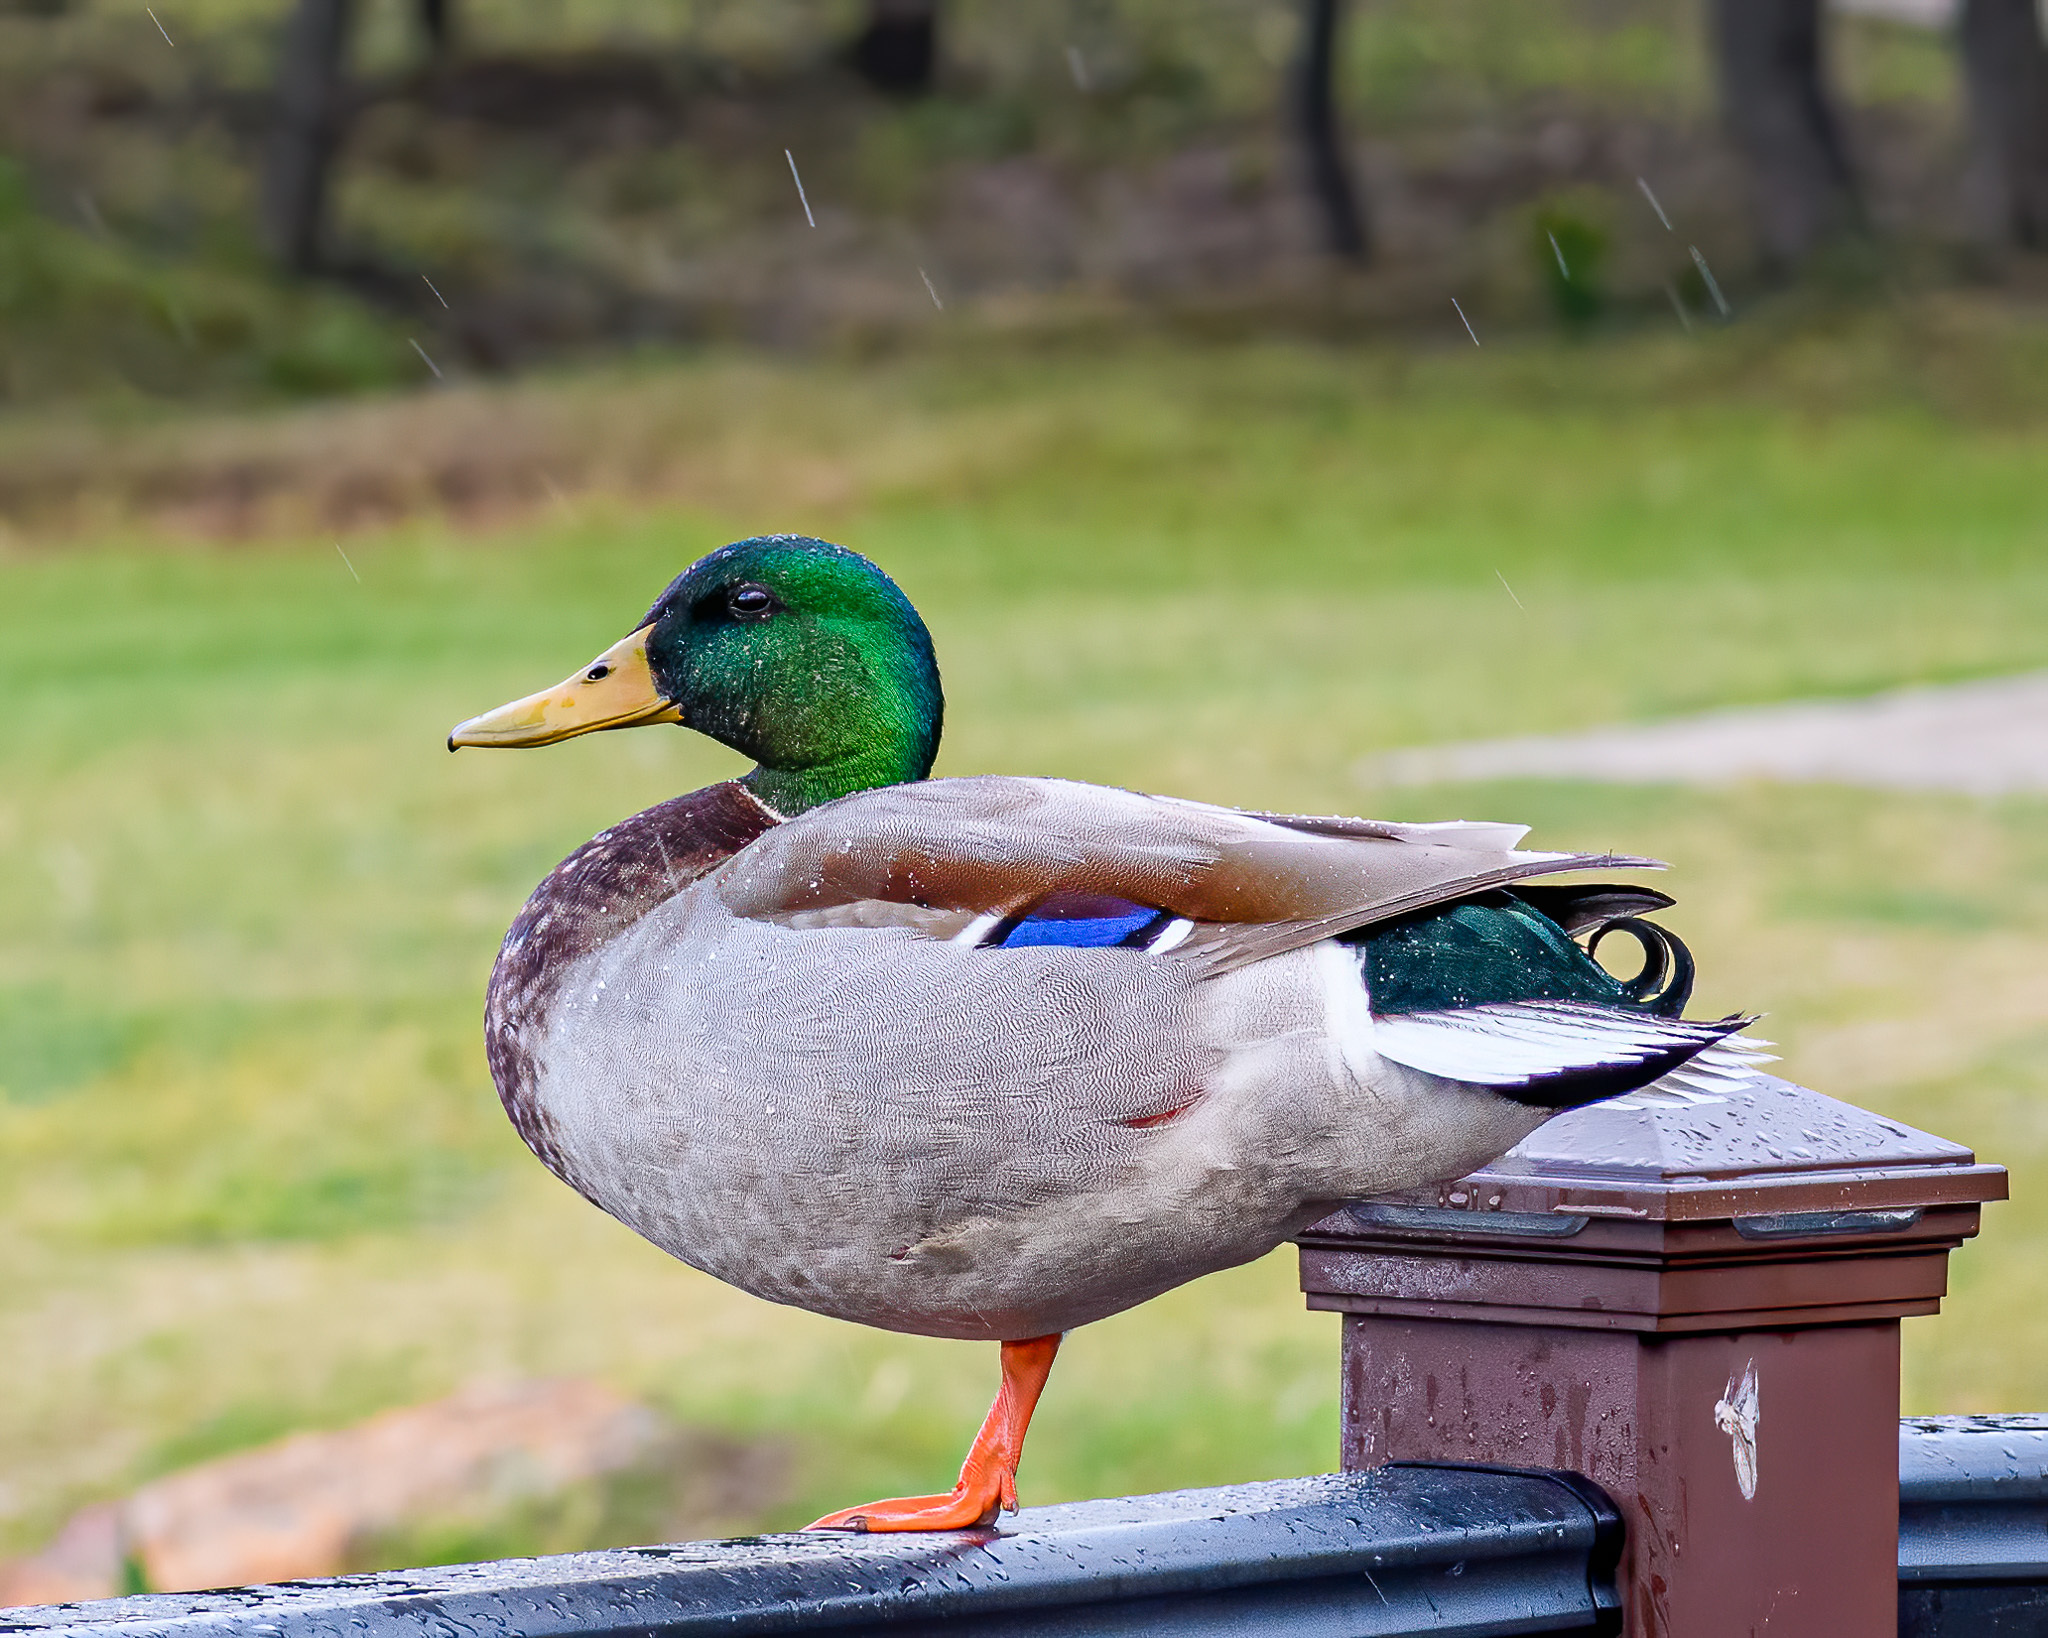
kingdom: Animalia
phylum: Chordata
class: Aves
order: Anseriformes
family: Anatidae
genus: Anas
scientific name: Anas platyrhynchos
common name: Mallard
